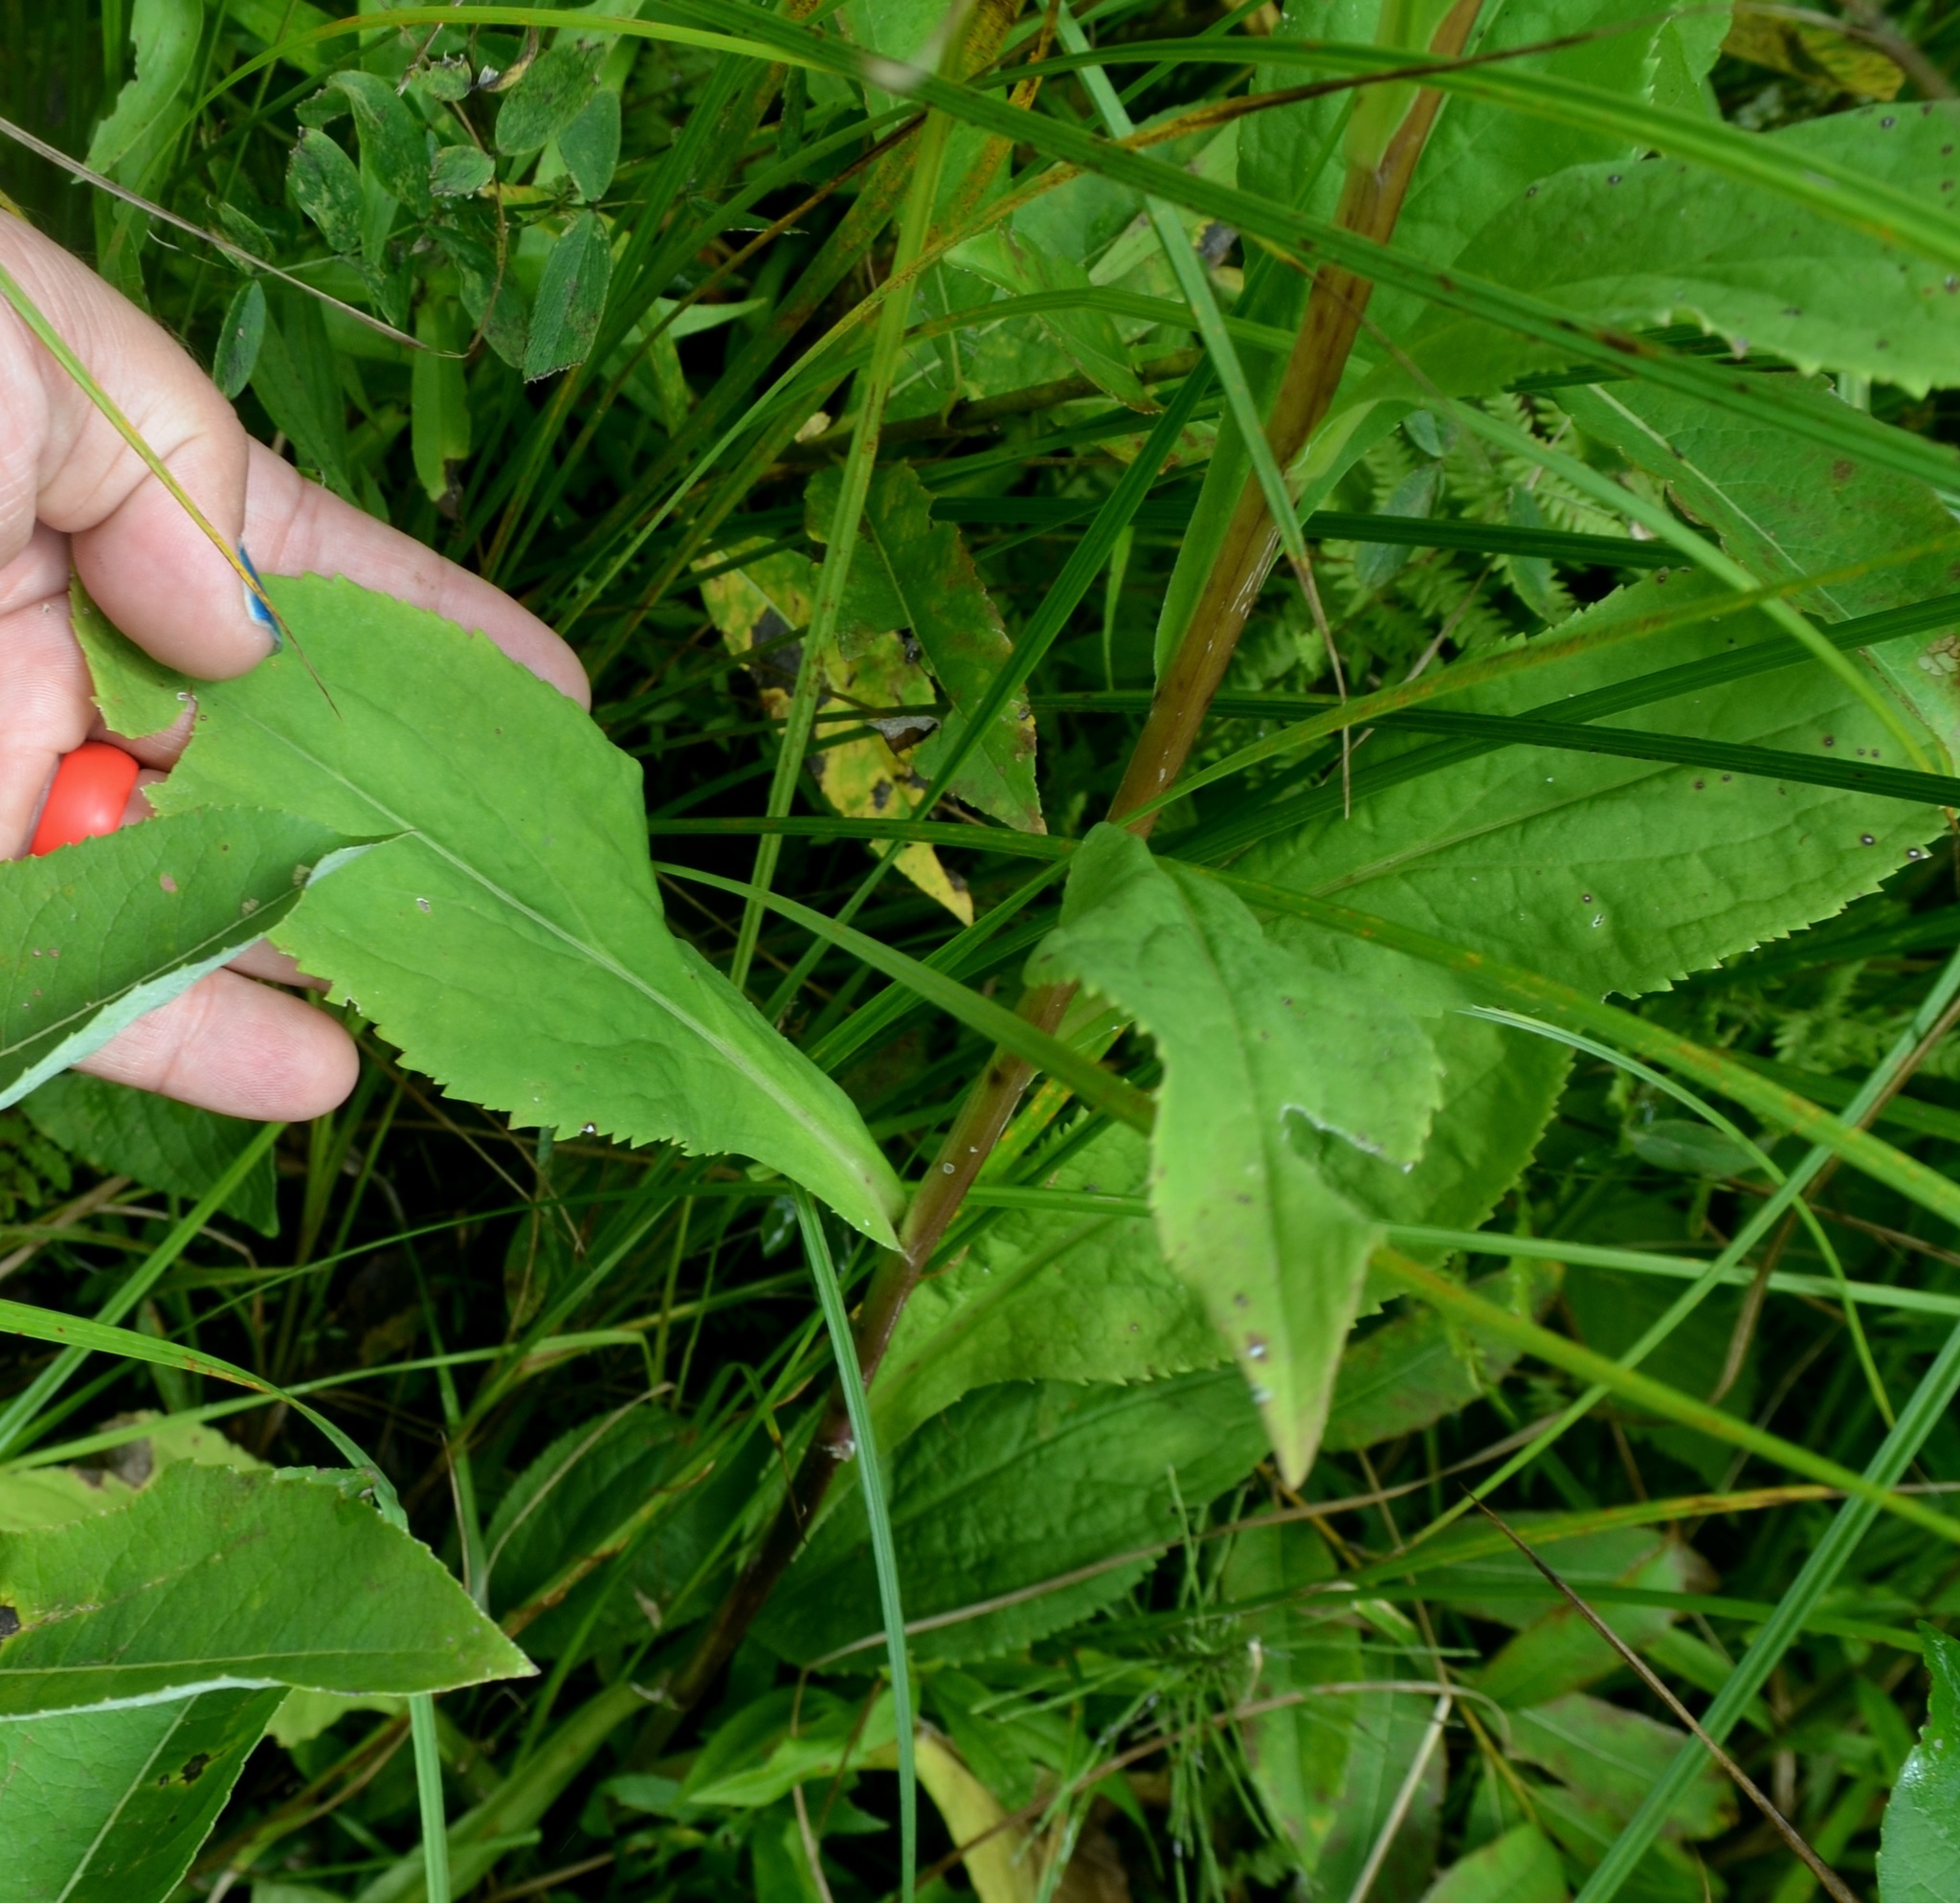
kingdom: Plantae
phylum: Tracheophyta
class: Magnoliopsida
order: Asterales
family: Asteraceae
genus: Solidago
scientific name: Solidago patula
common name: Rough-leaf goldenrod
